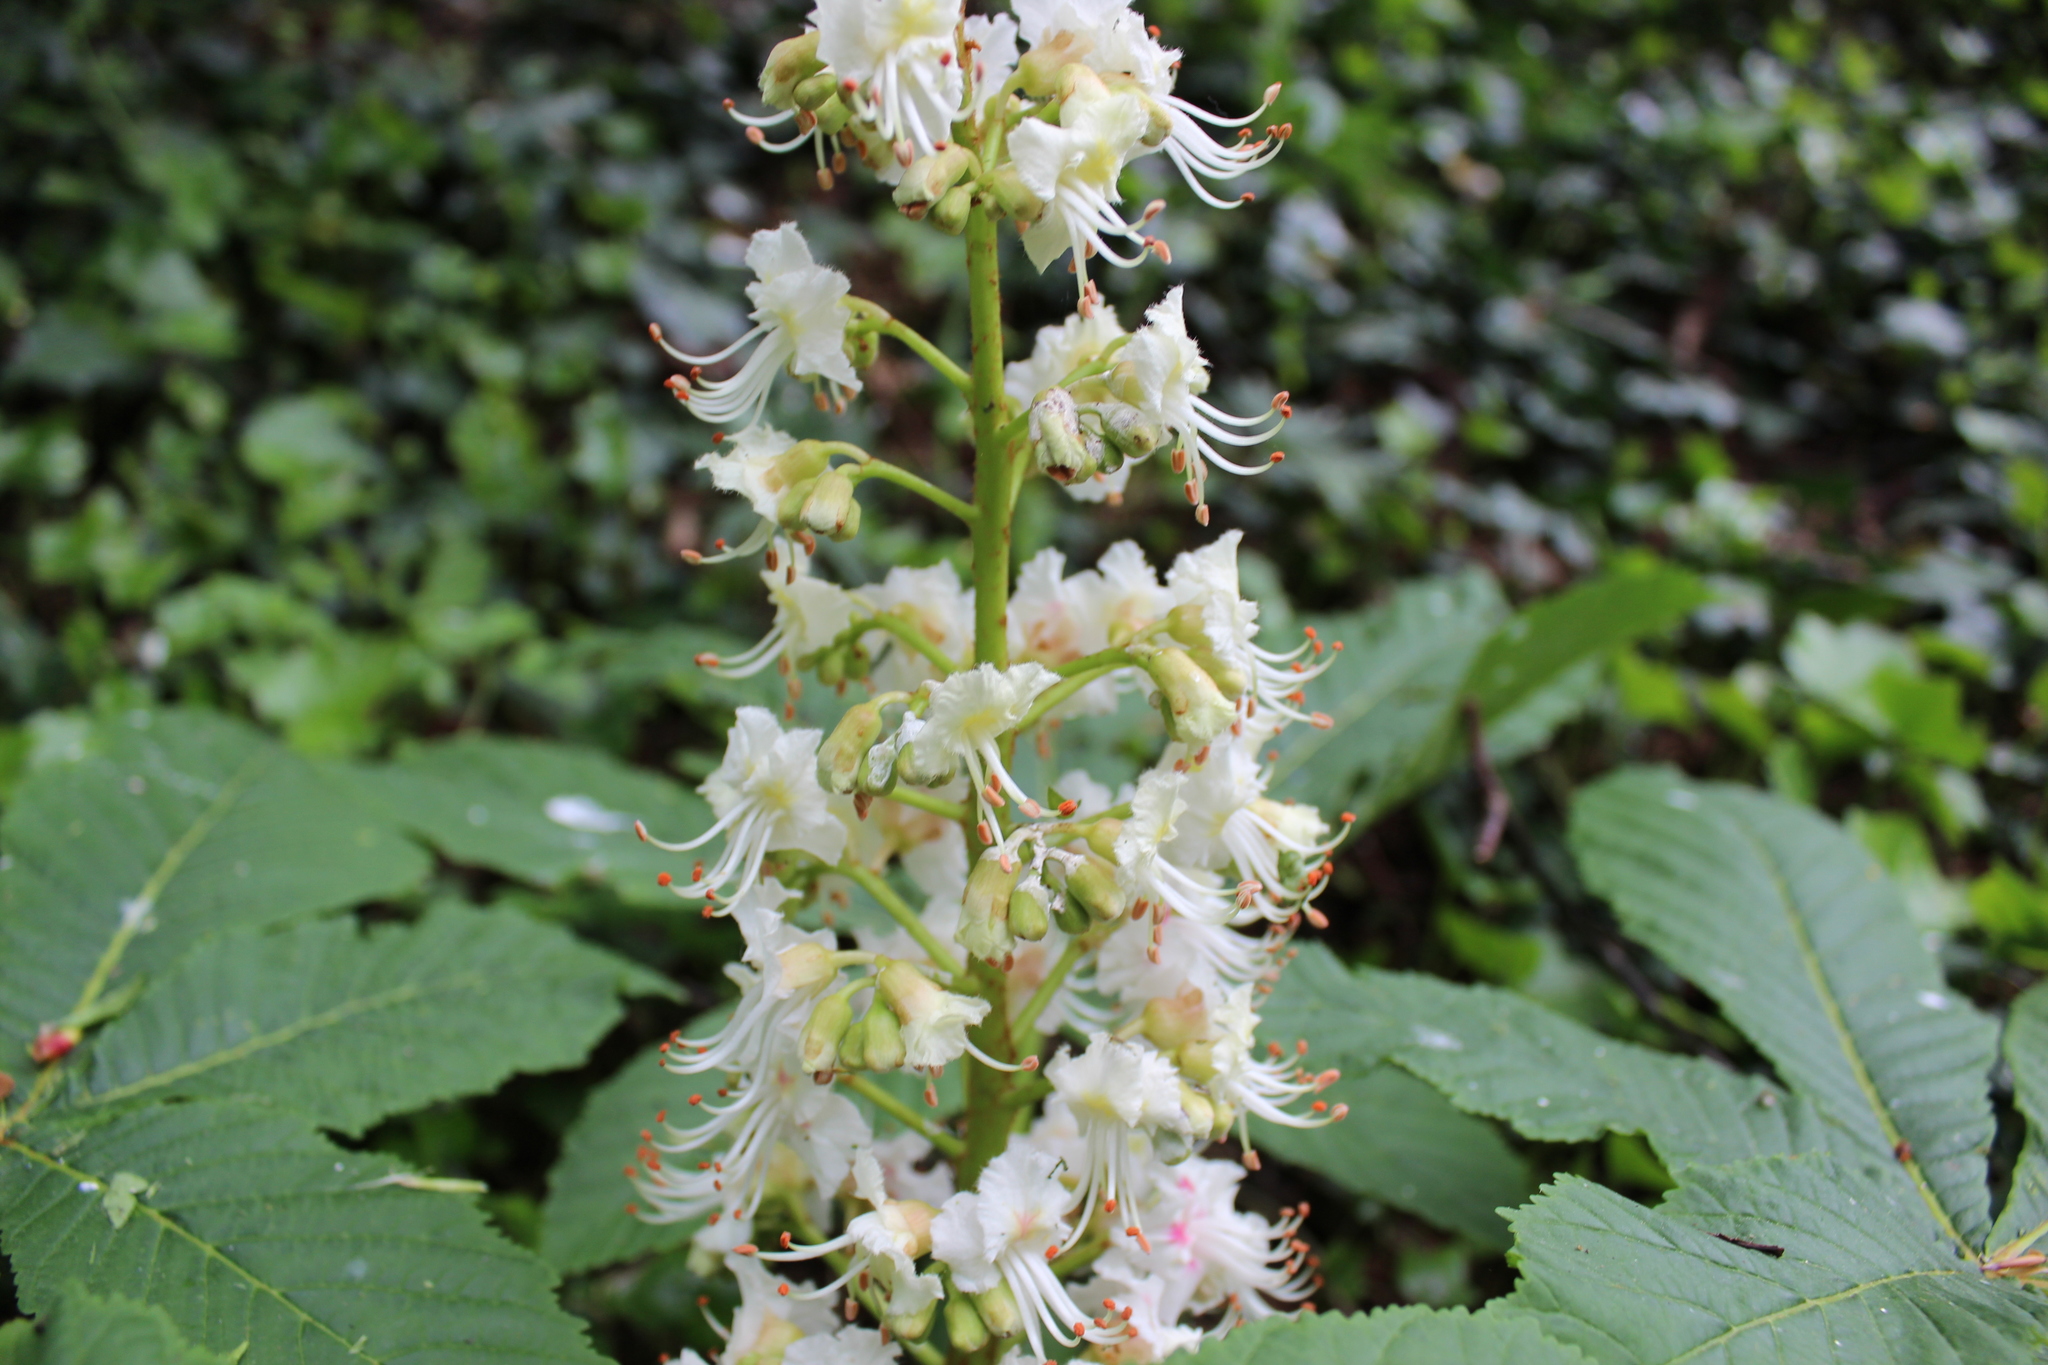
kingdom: Plantae
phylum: Tracheophyta
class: Magnoliopsida
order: Sapindales
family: Sapindaceae
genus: Aesculus
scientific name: Aesculus hippocastanum
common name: Horse-chestnut
